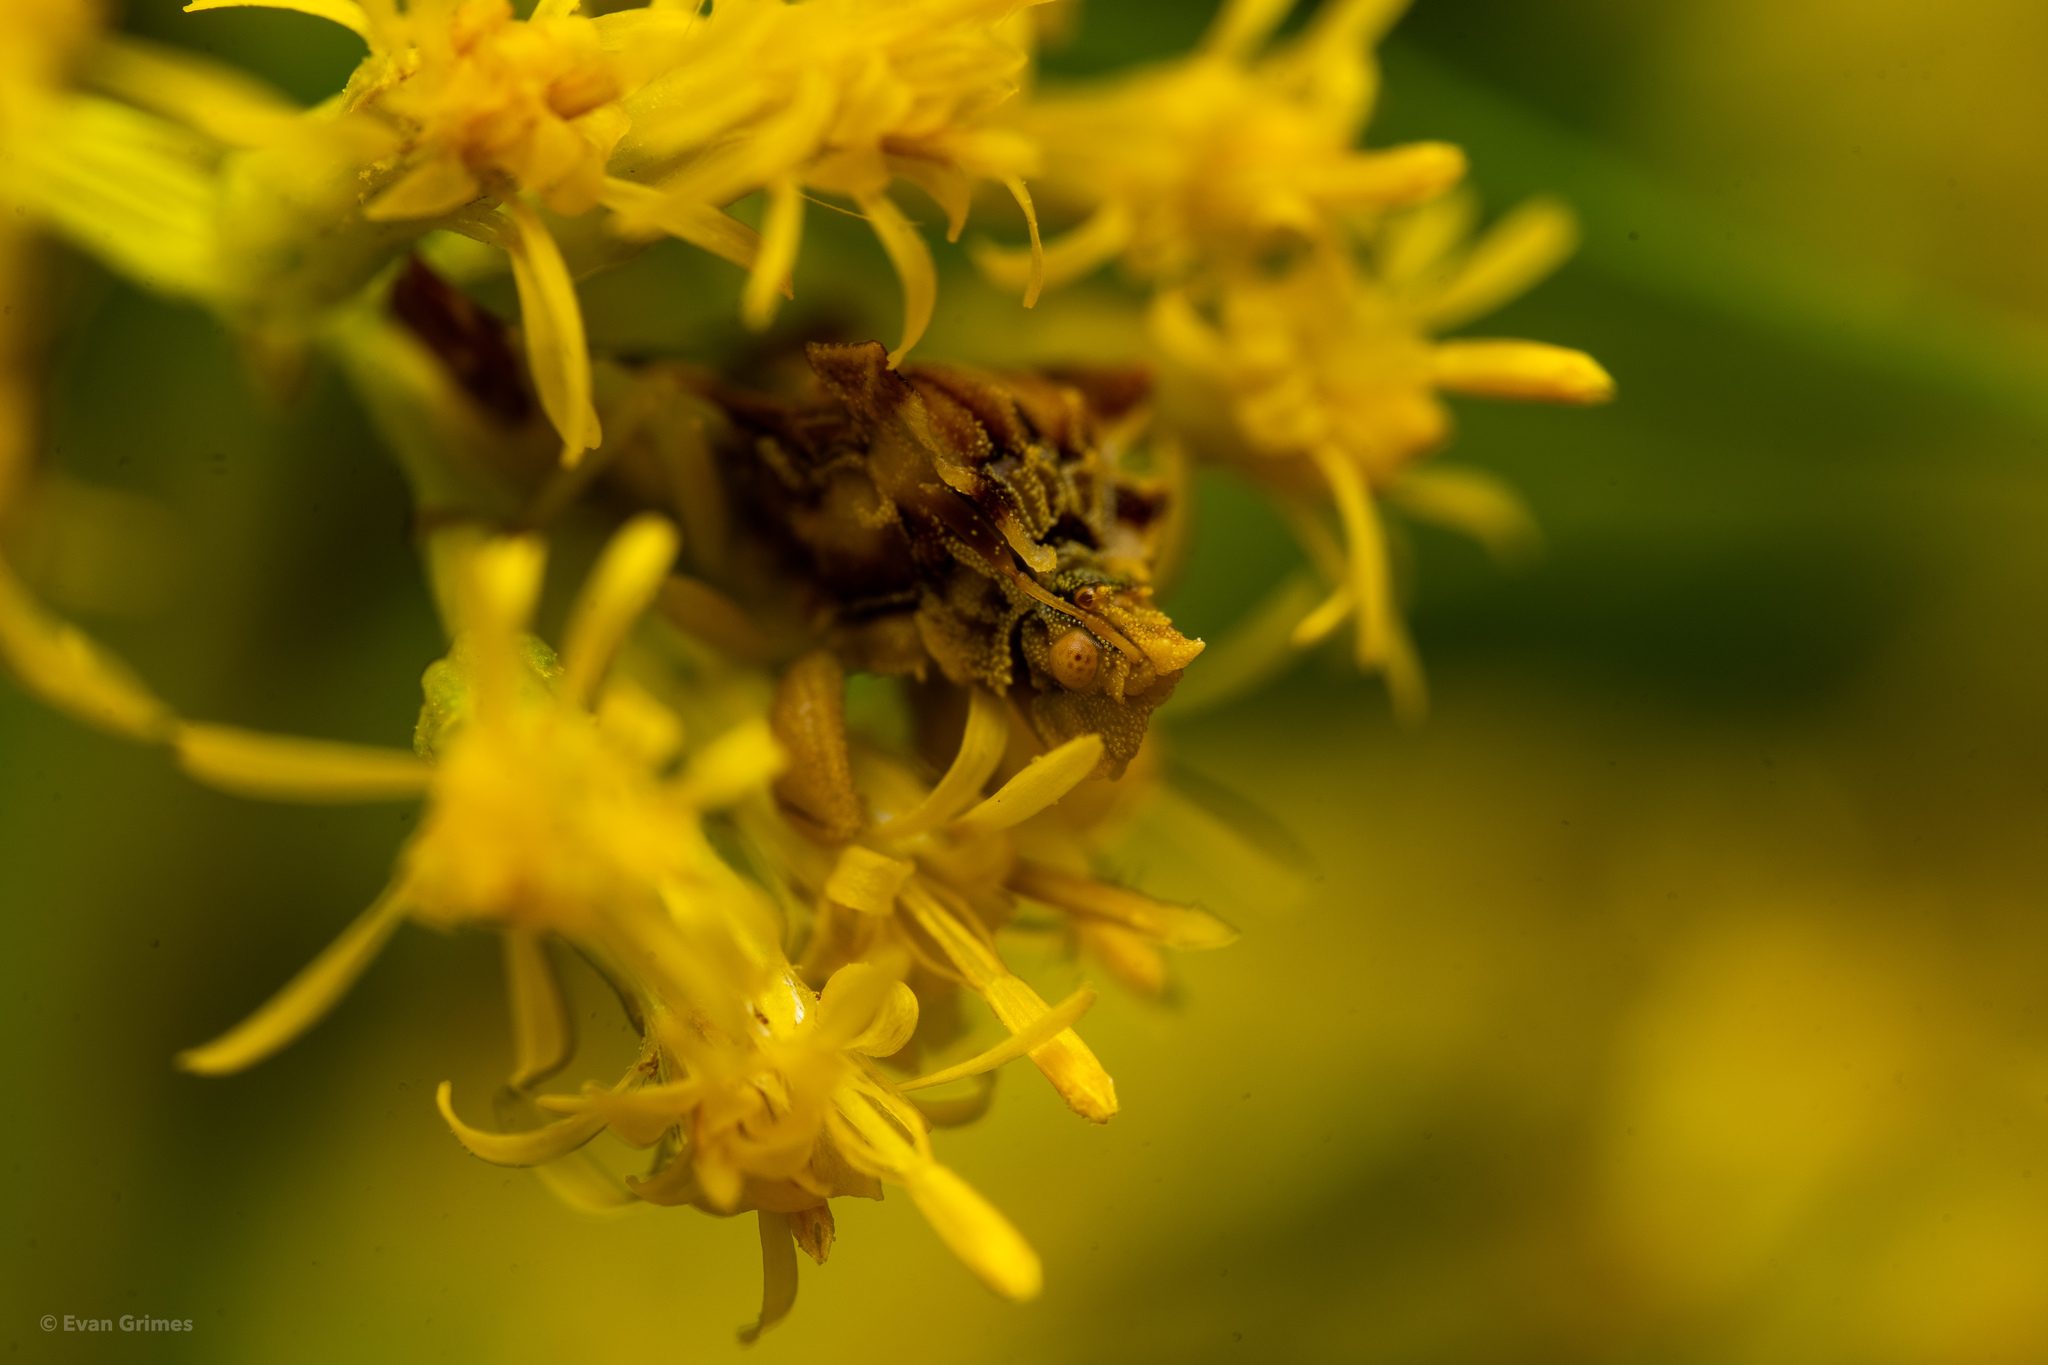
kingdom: Animalia
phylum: Arthropoda
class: Insecta
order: Hemiptera
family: Reduviidae
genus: Phymata
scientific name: Phymata fasciata
